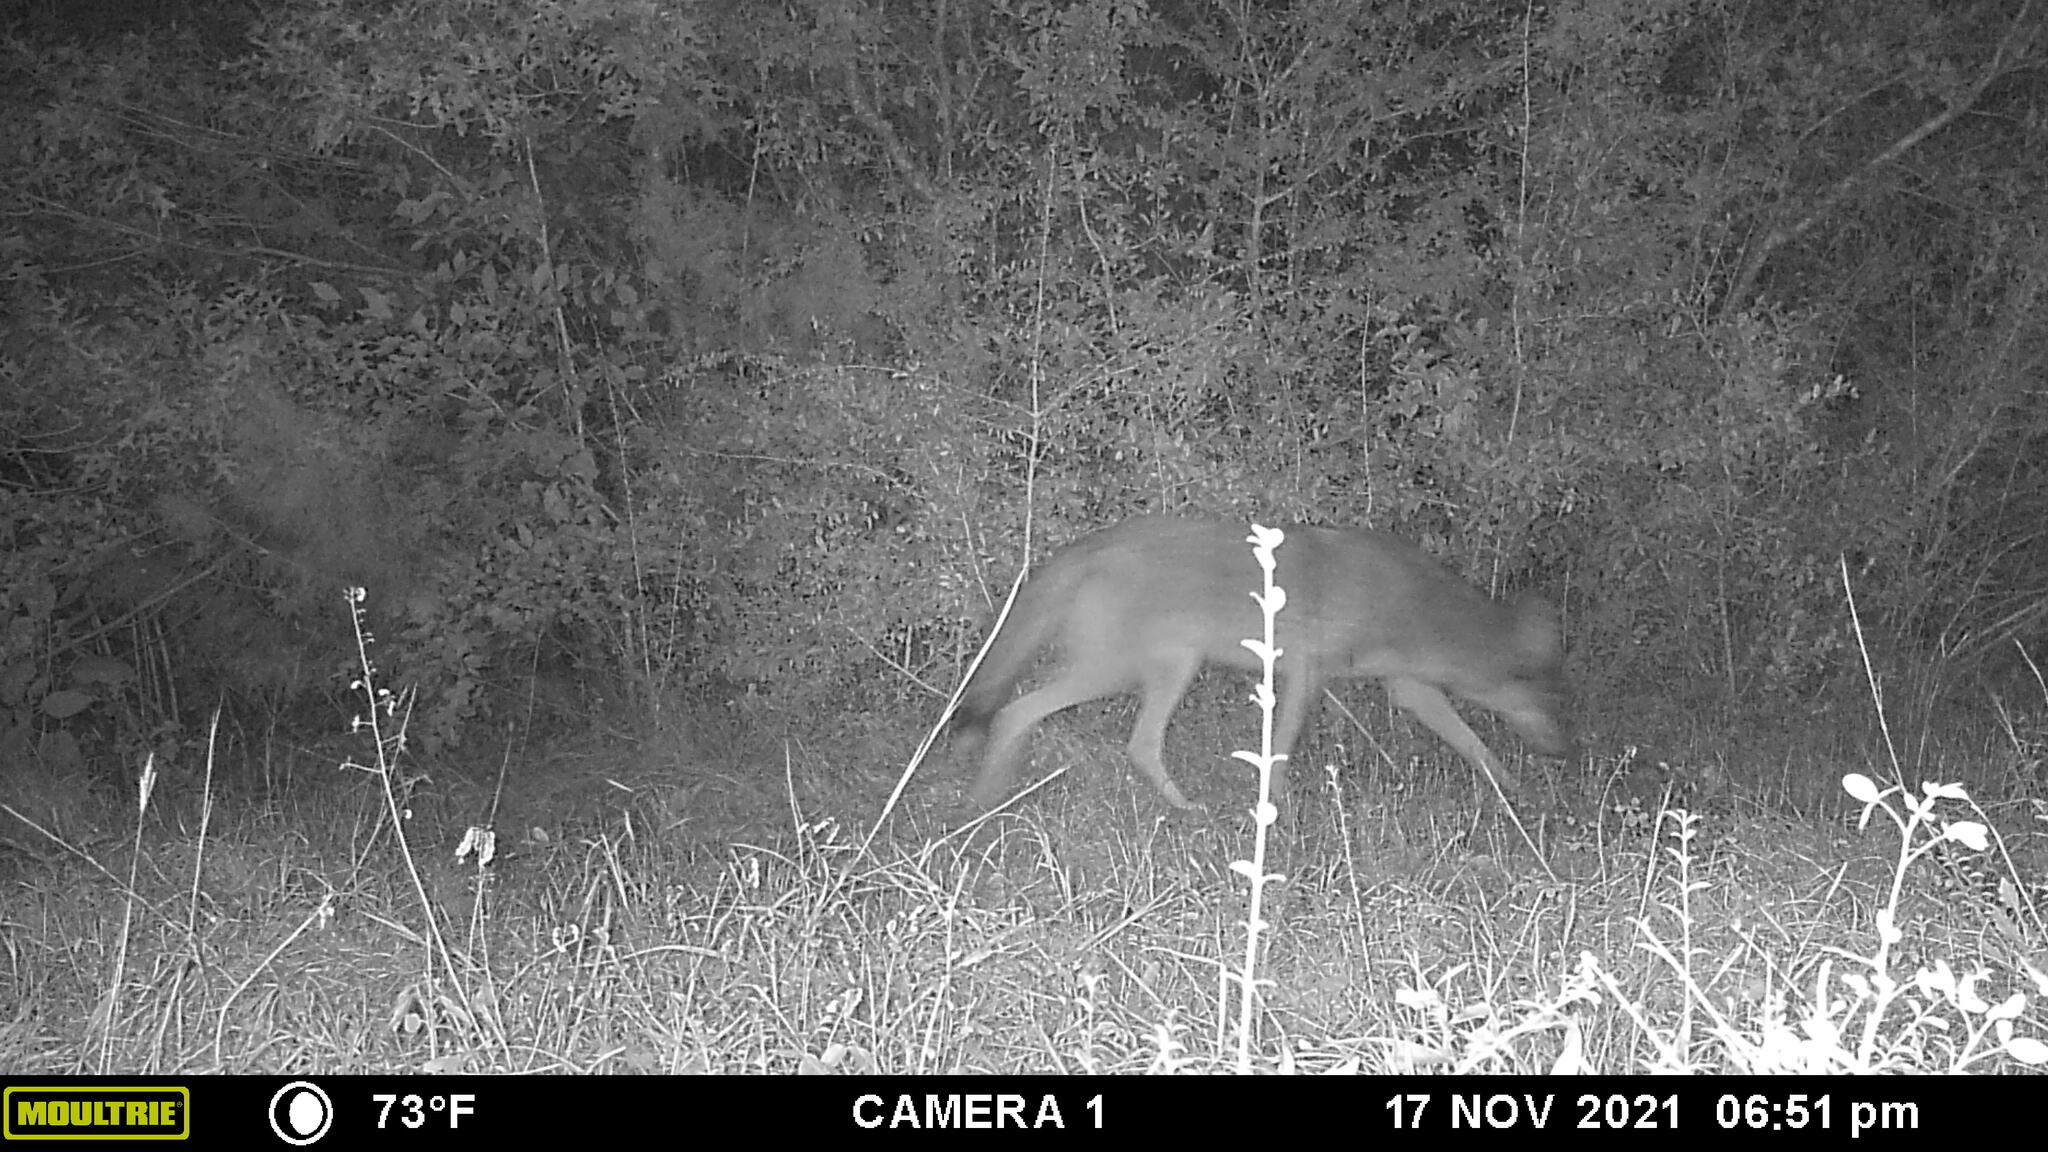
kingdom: Animalia
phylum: Chordata
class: Mammalia
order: Carnivora
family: Canidae
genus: Canis
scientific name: Canis latrans
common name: Coyote
